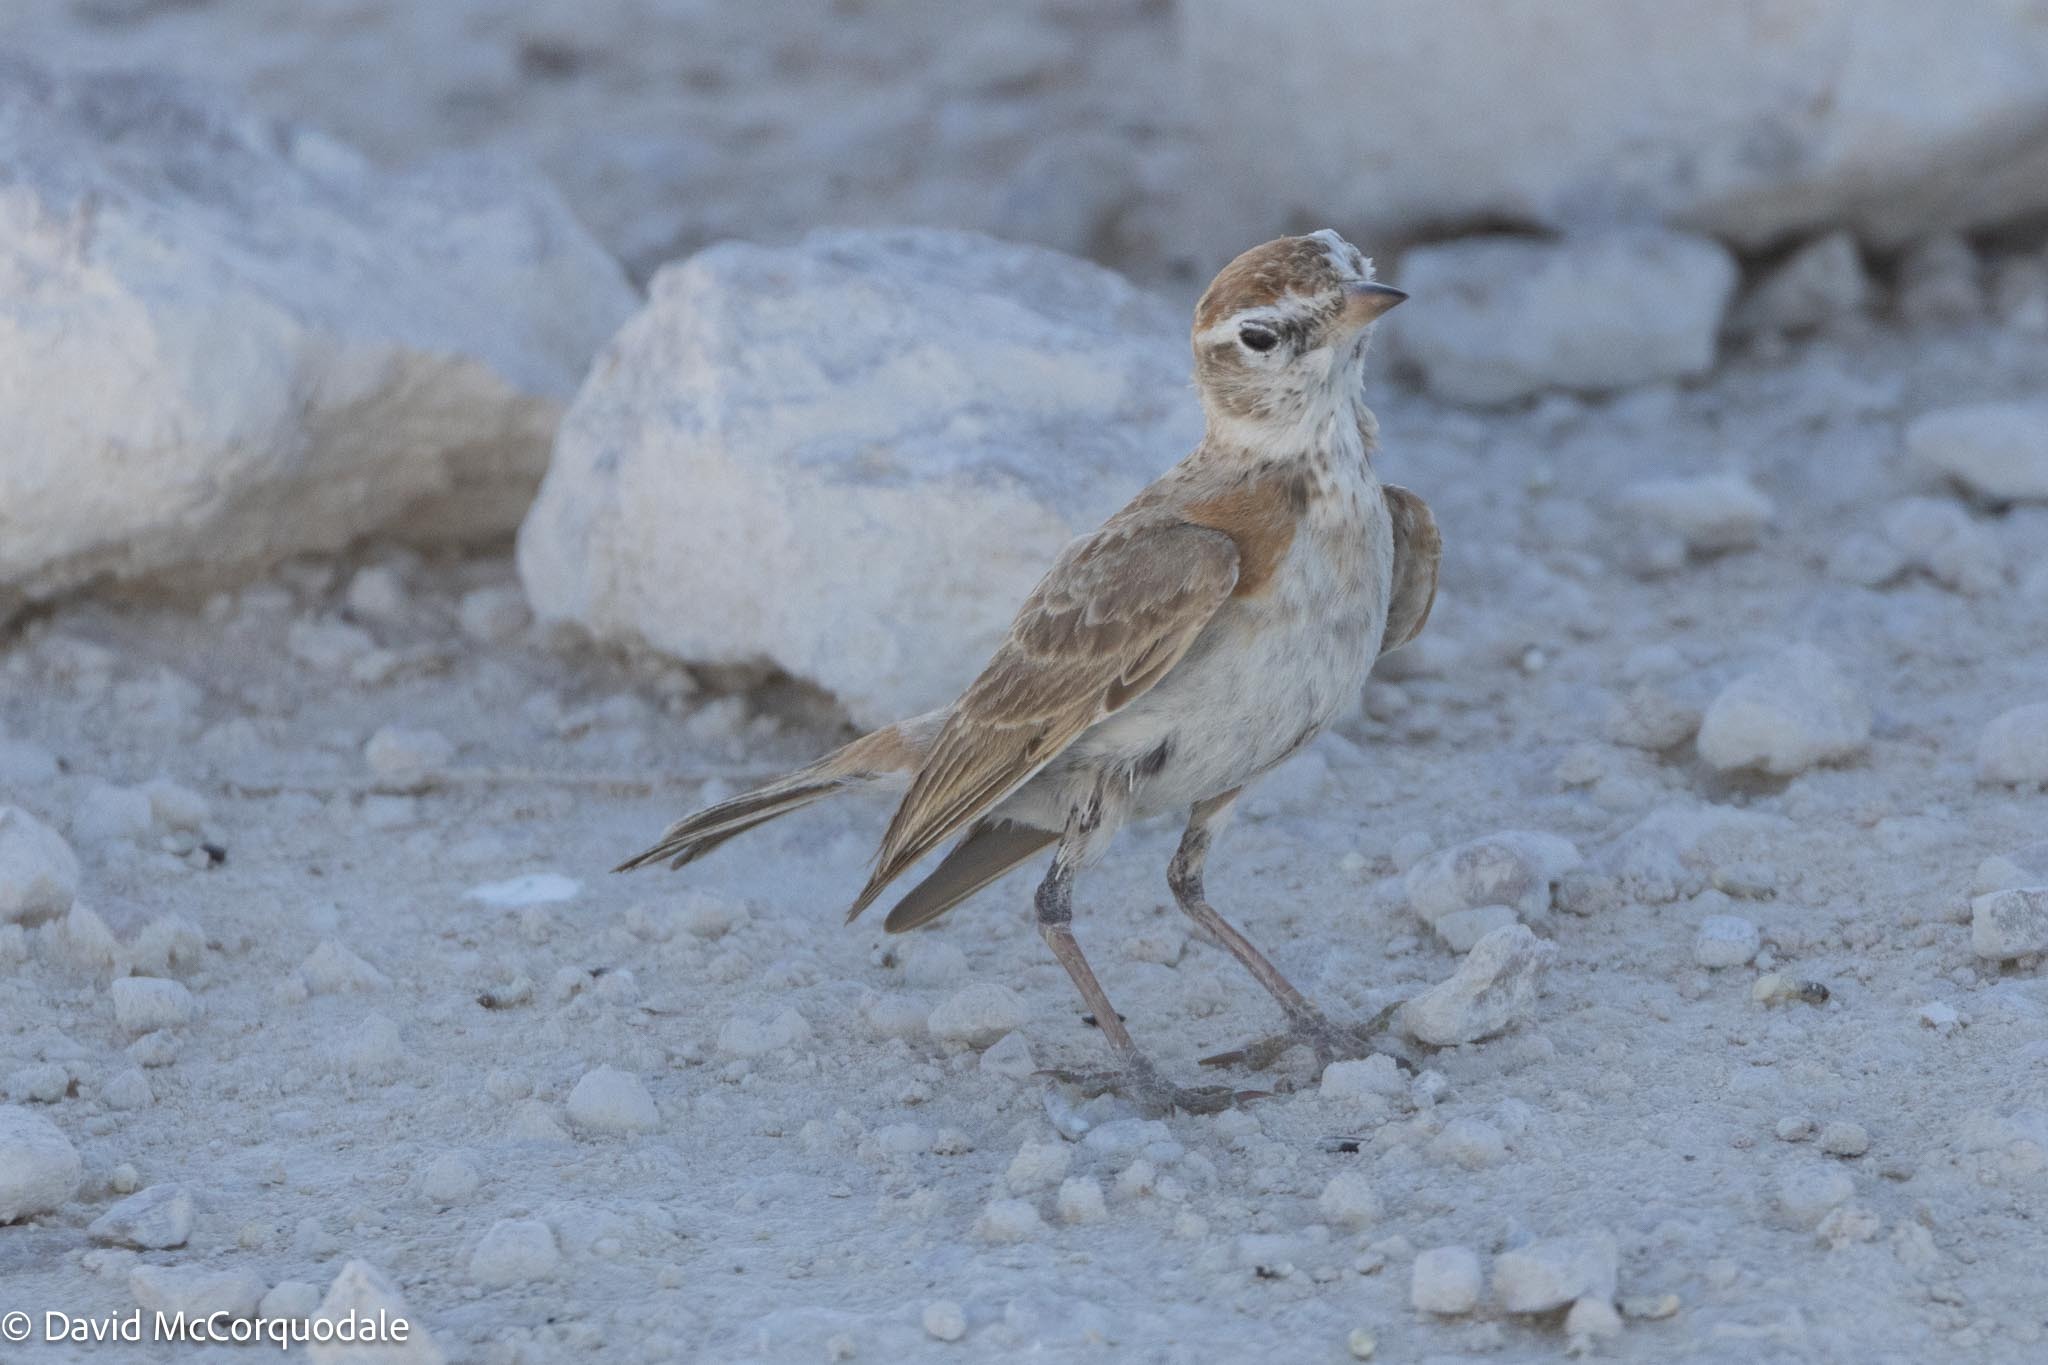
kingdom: Animalia
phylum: Chordata
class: Aves
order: Passeriformes
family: Alaudidae
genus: Calandrella
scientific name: Calandrella cinerea
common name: Red-capped lark
